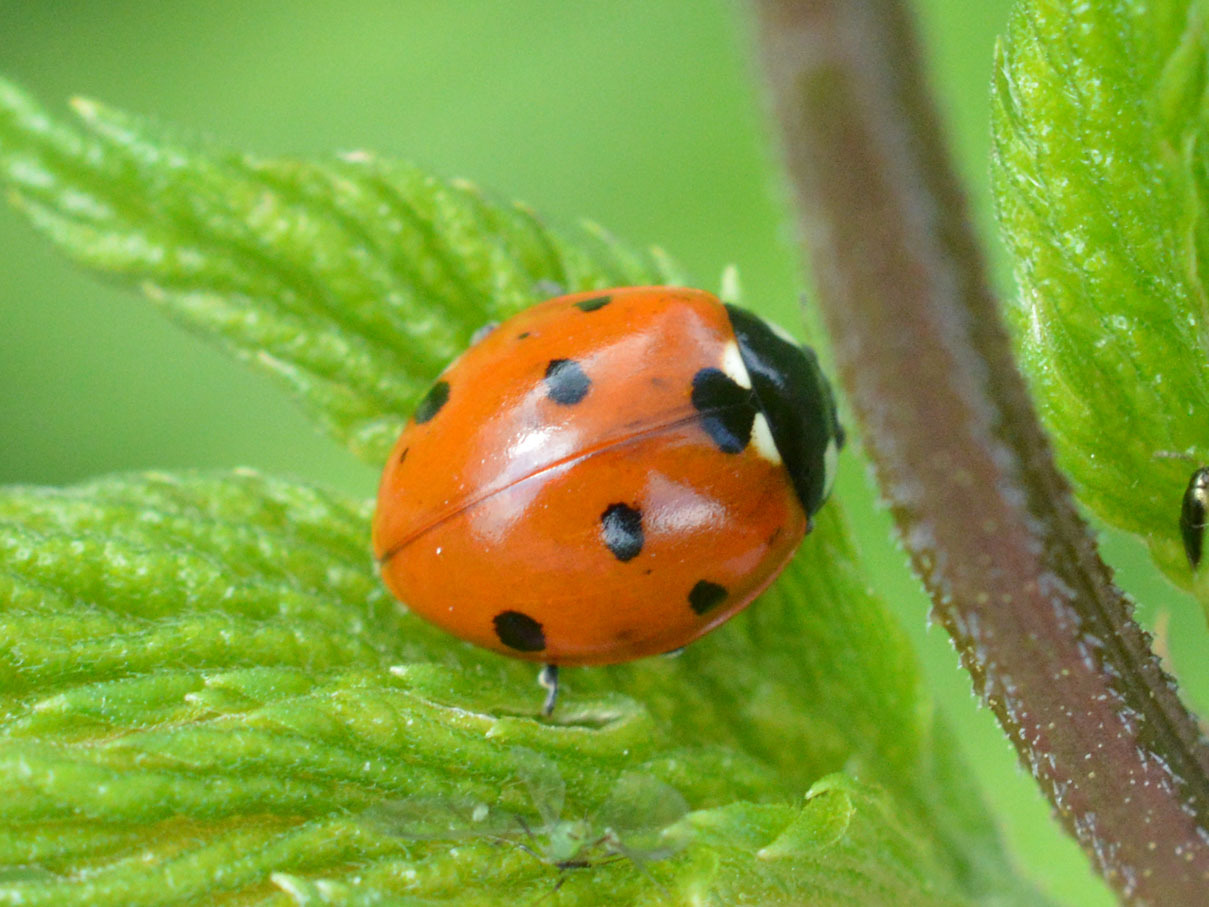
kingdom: Animalia
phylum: Arthropoda
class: Insecta
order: Coleoptera
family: Coccinellidae
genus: Coccinella
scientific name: Coccinella septempunctata
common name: Sevenspotted lady beetle
